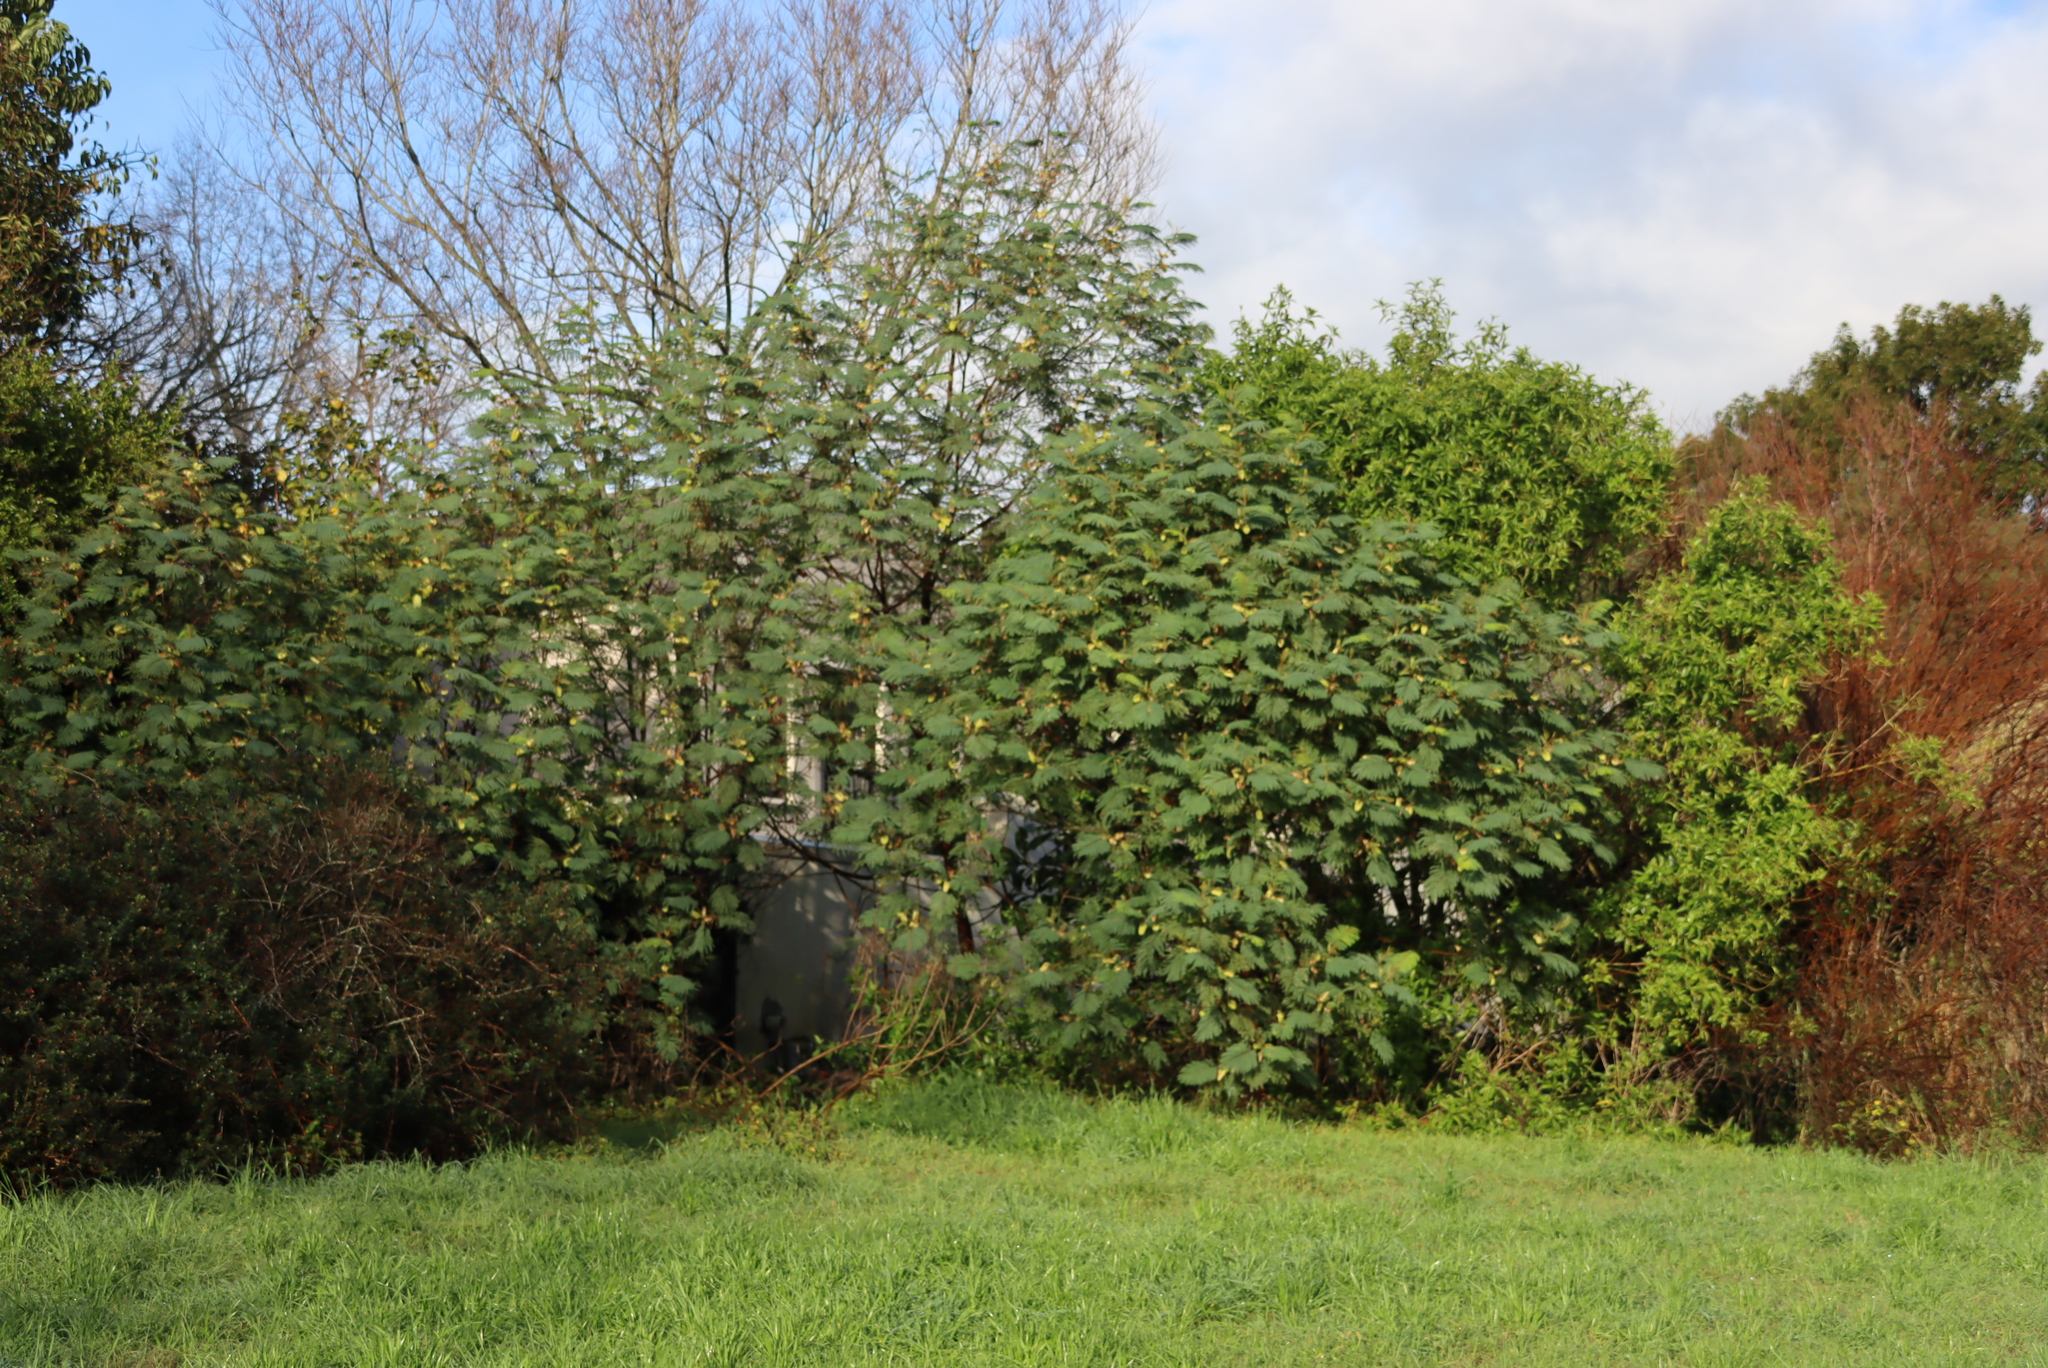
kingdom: Plantae
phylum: Tracheophyta
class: Magnoliopsida
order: Fabales
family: Fabaceae
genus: Paraserianthes
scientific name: Paraserianthes lophantha
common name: Plume albizia
